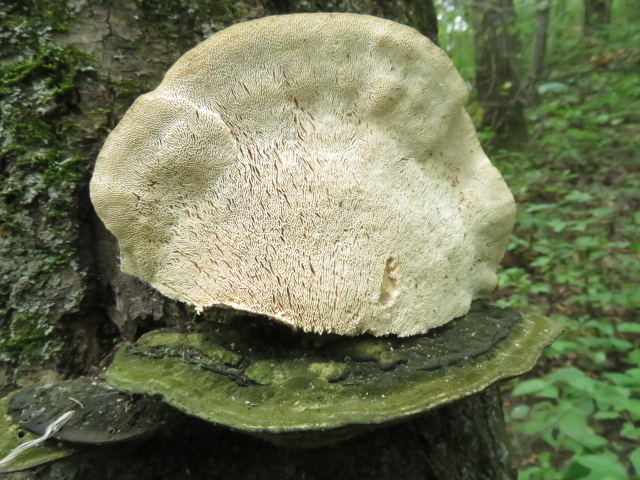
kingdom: Fungi
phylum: Basidiomycota
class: Agaricomycetes
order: Polyporales
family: Polyporaceae
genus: Trametes
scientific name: Trametes gibbosa
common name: Lumpy bracket
